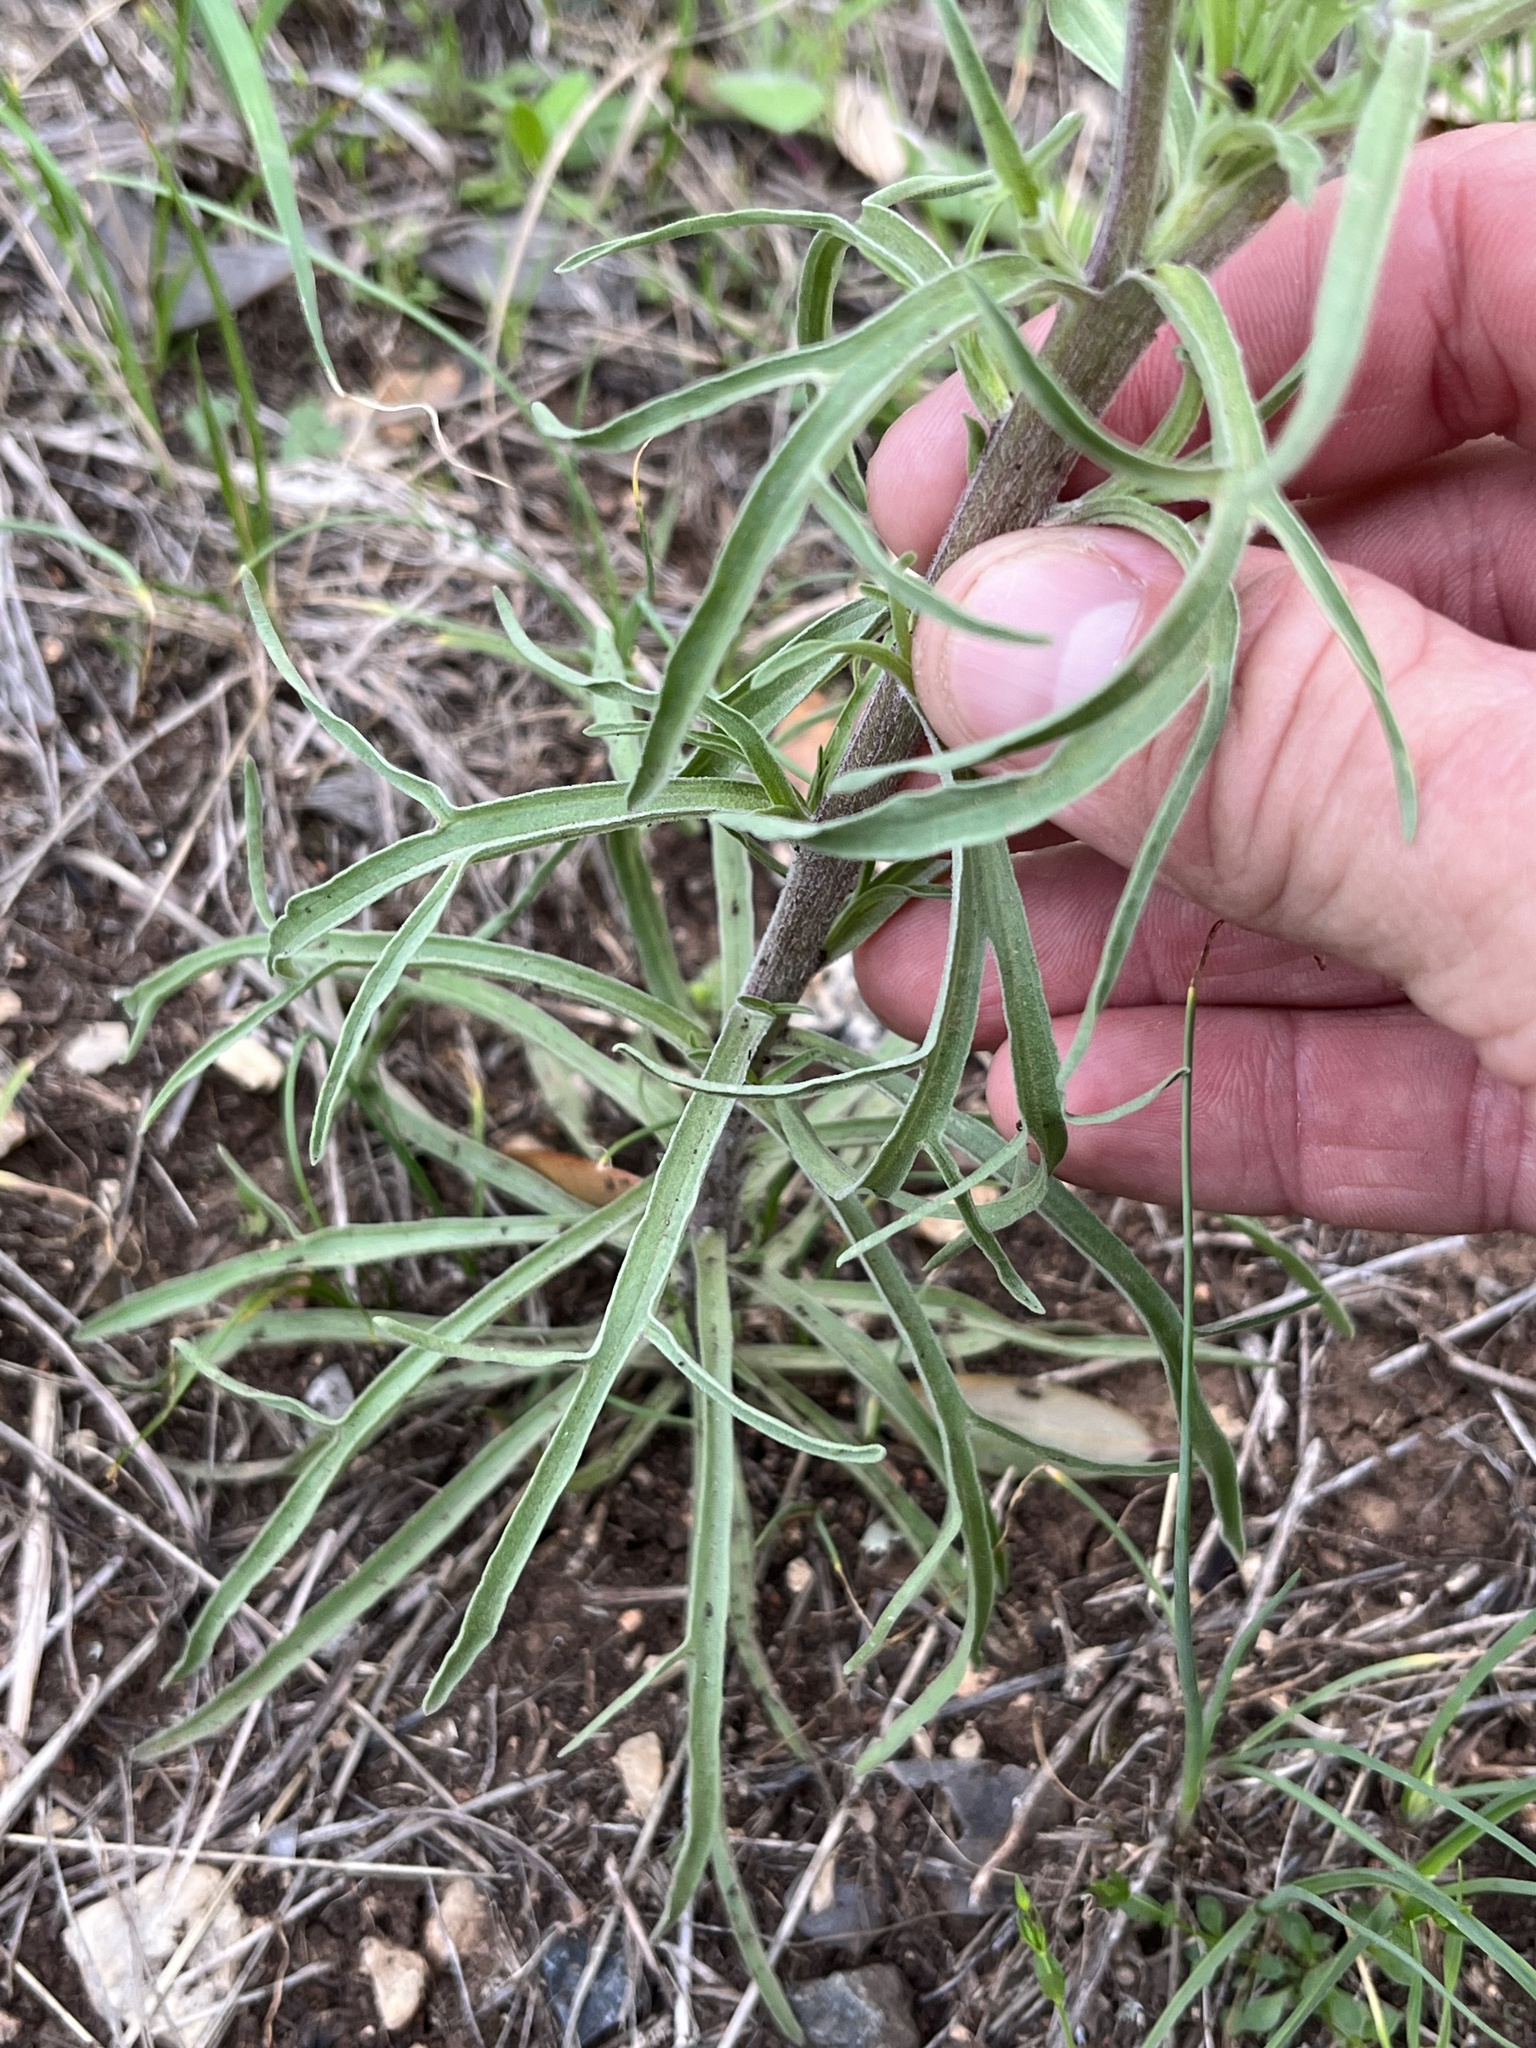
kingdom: Plantae
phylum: Tracheophyta
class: Magnoliopsida
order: Lamiales
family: Orobanchaceae
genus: Castilleja
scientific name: Castilleja lindheimeri
